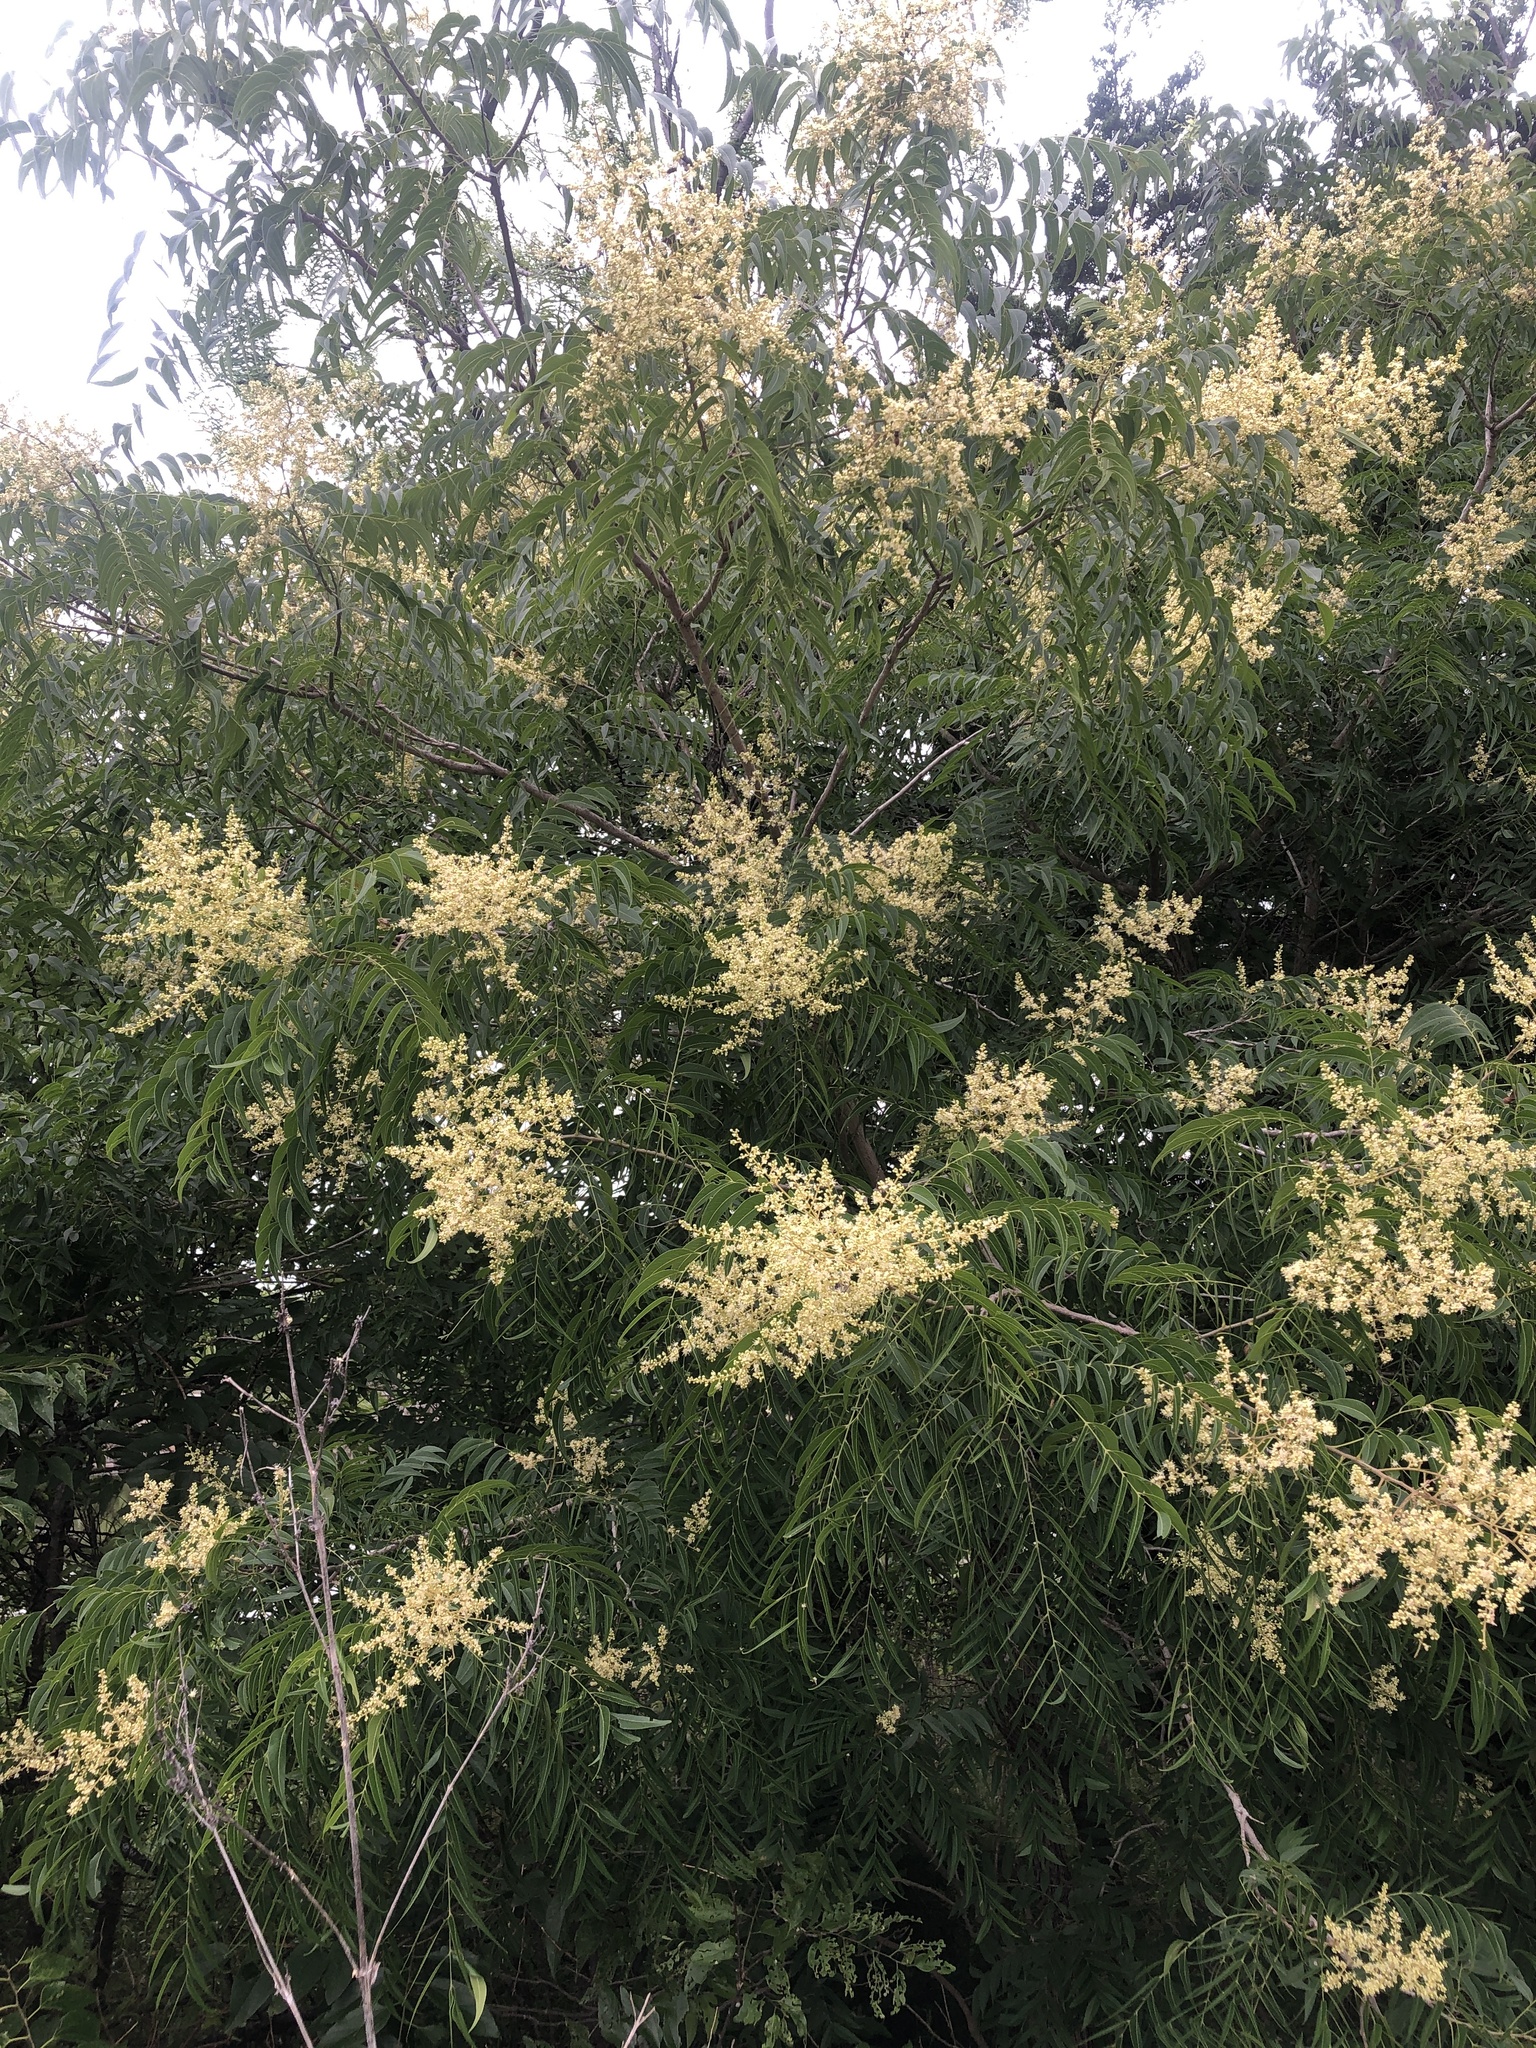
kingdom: Plantae
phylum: Tracheophyta
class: Magnoliopsida
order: Sapindales
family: Sapindaceae
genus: Sapindus
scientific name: Sapindus drummondii
